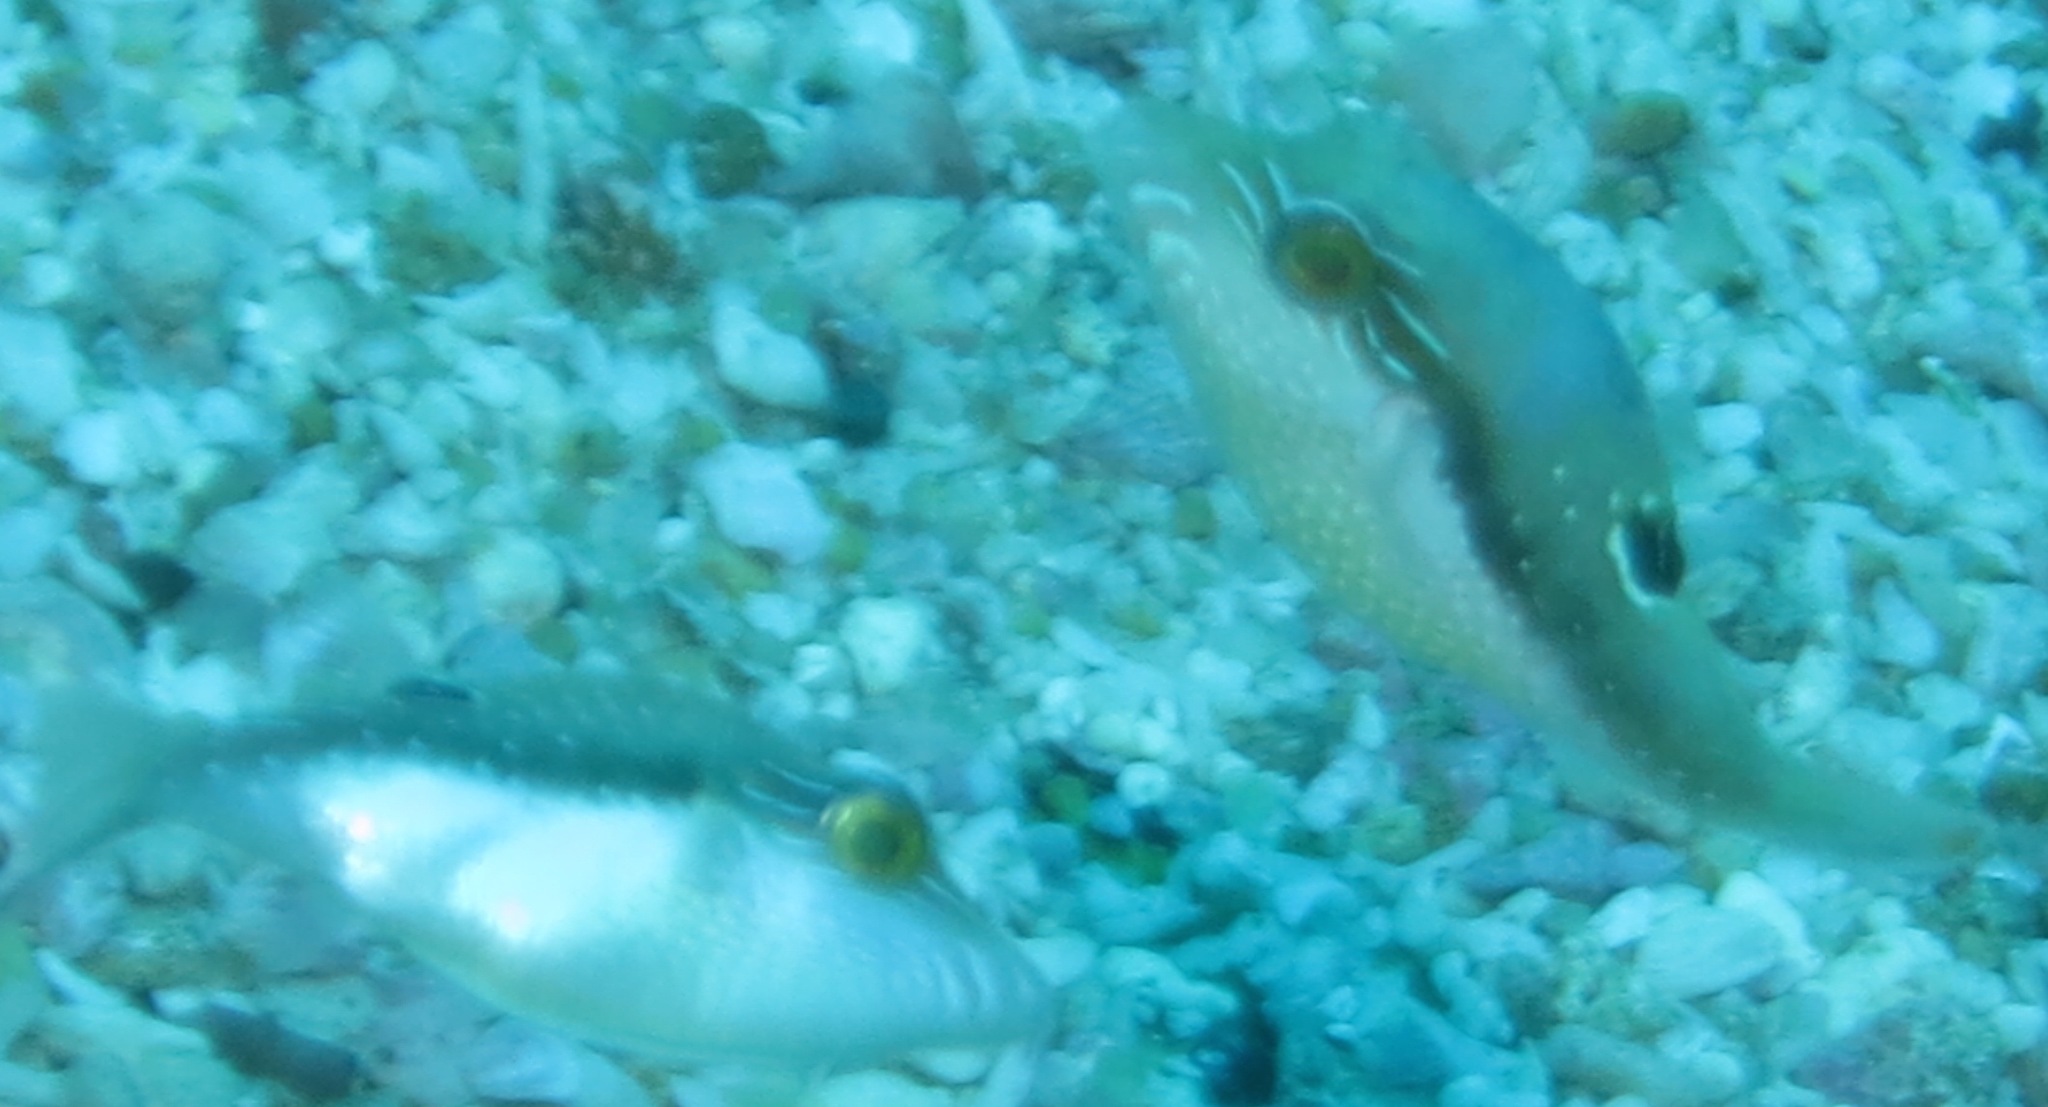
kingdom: Animalia
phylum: Chordata
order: Tetraodontiformes
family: Tetraodontidae
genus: Canthigaster
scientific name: Canthigaster bennetti
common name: Bennett's pufferfish
